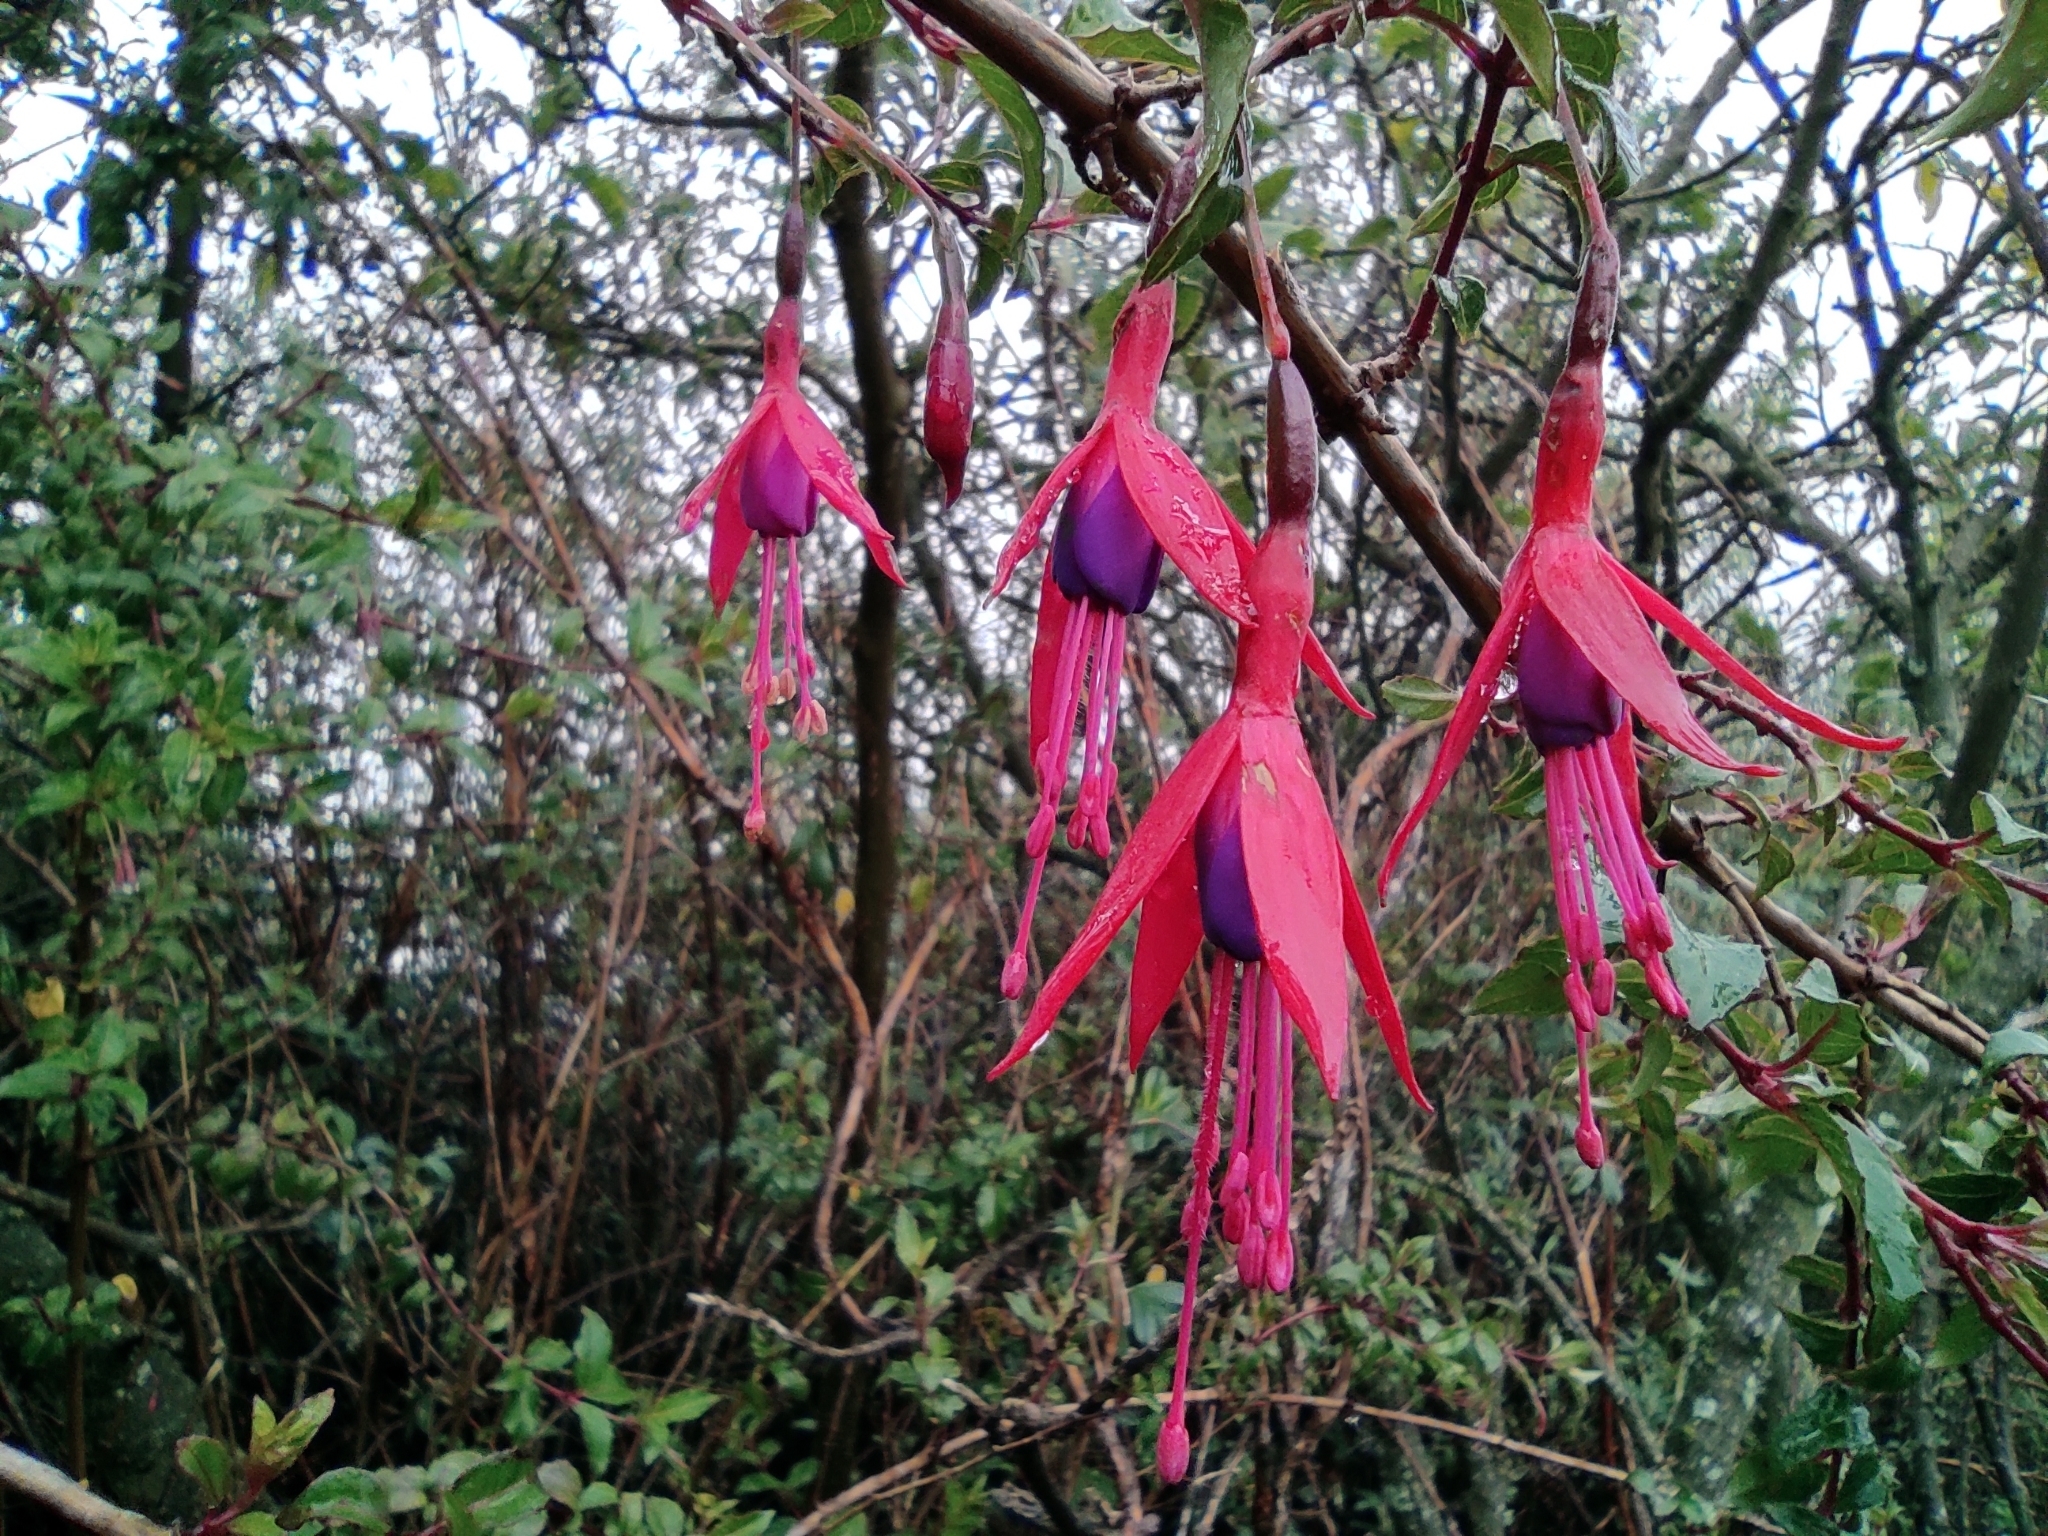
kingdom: Plantae
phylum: Tracheophyta
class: Magnoliopsida
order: Myrtales
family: Onagraceae
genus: Fuchsia
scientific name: Fuchsia magellanica
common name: Hardy fuchsia
